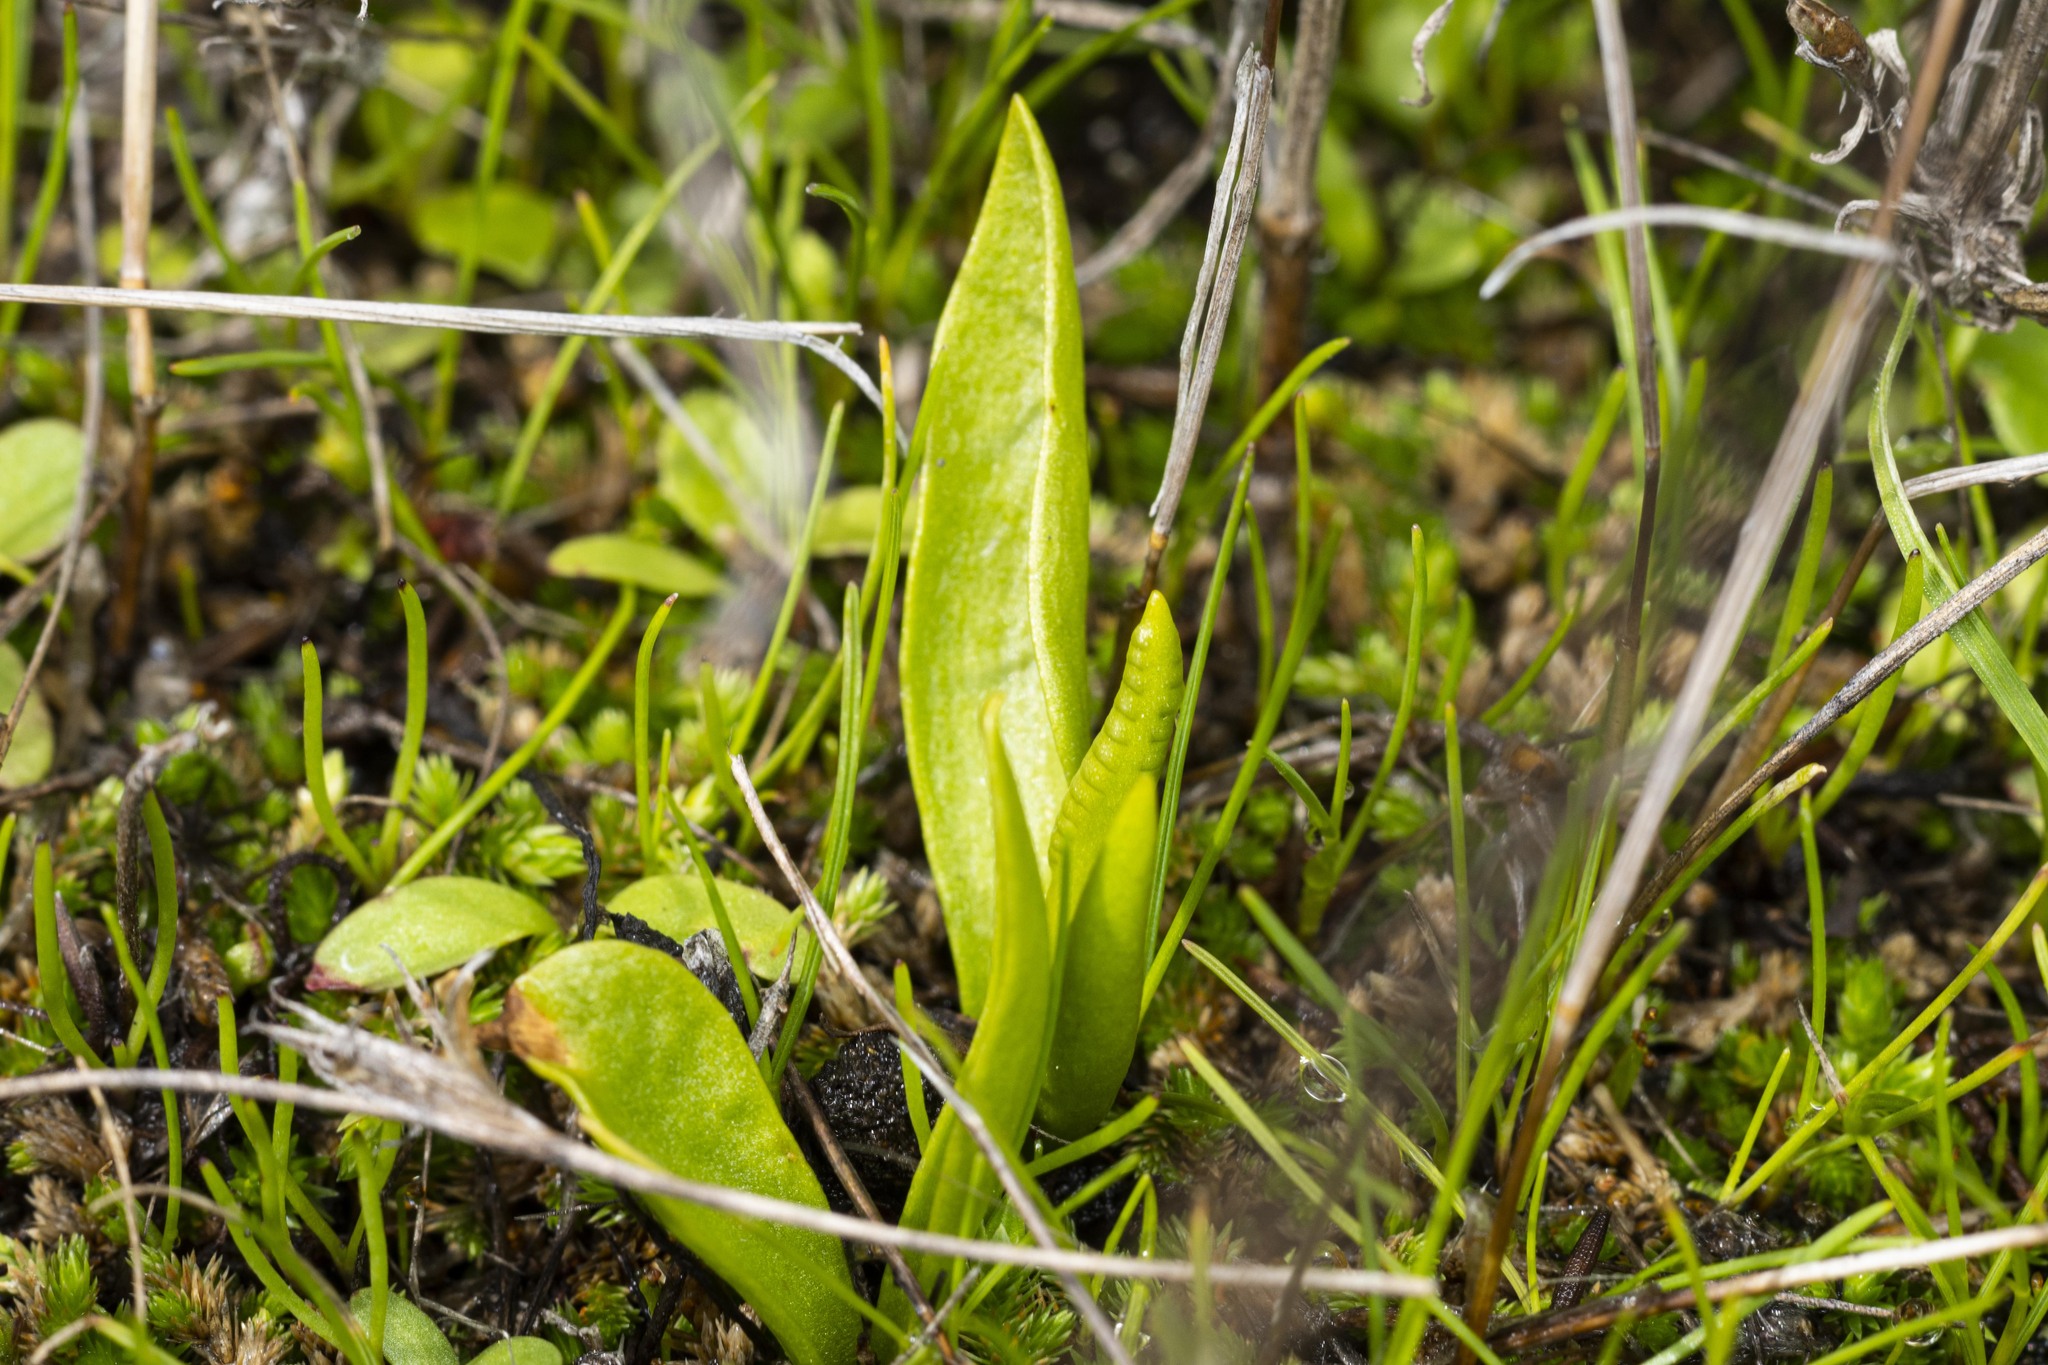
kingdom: Plantae
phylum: Tracheophyta
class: Polypodiopsida
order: Ophioglossales
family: Ophioglossaceae
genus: Ophioglossum
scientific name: Ophioglossum californicum
